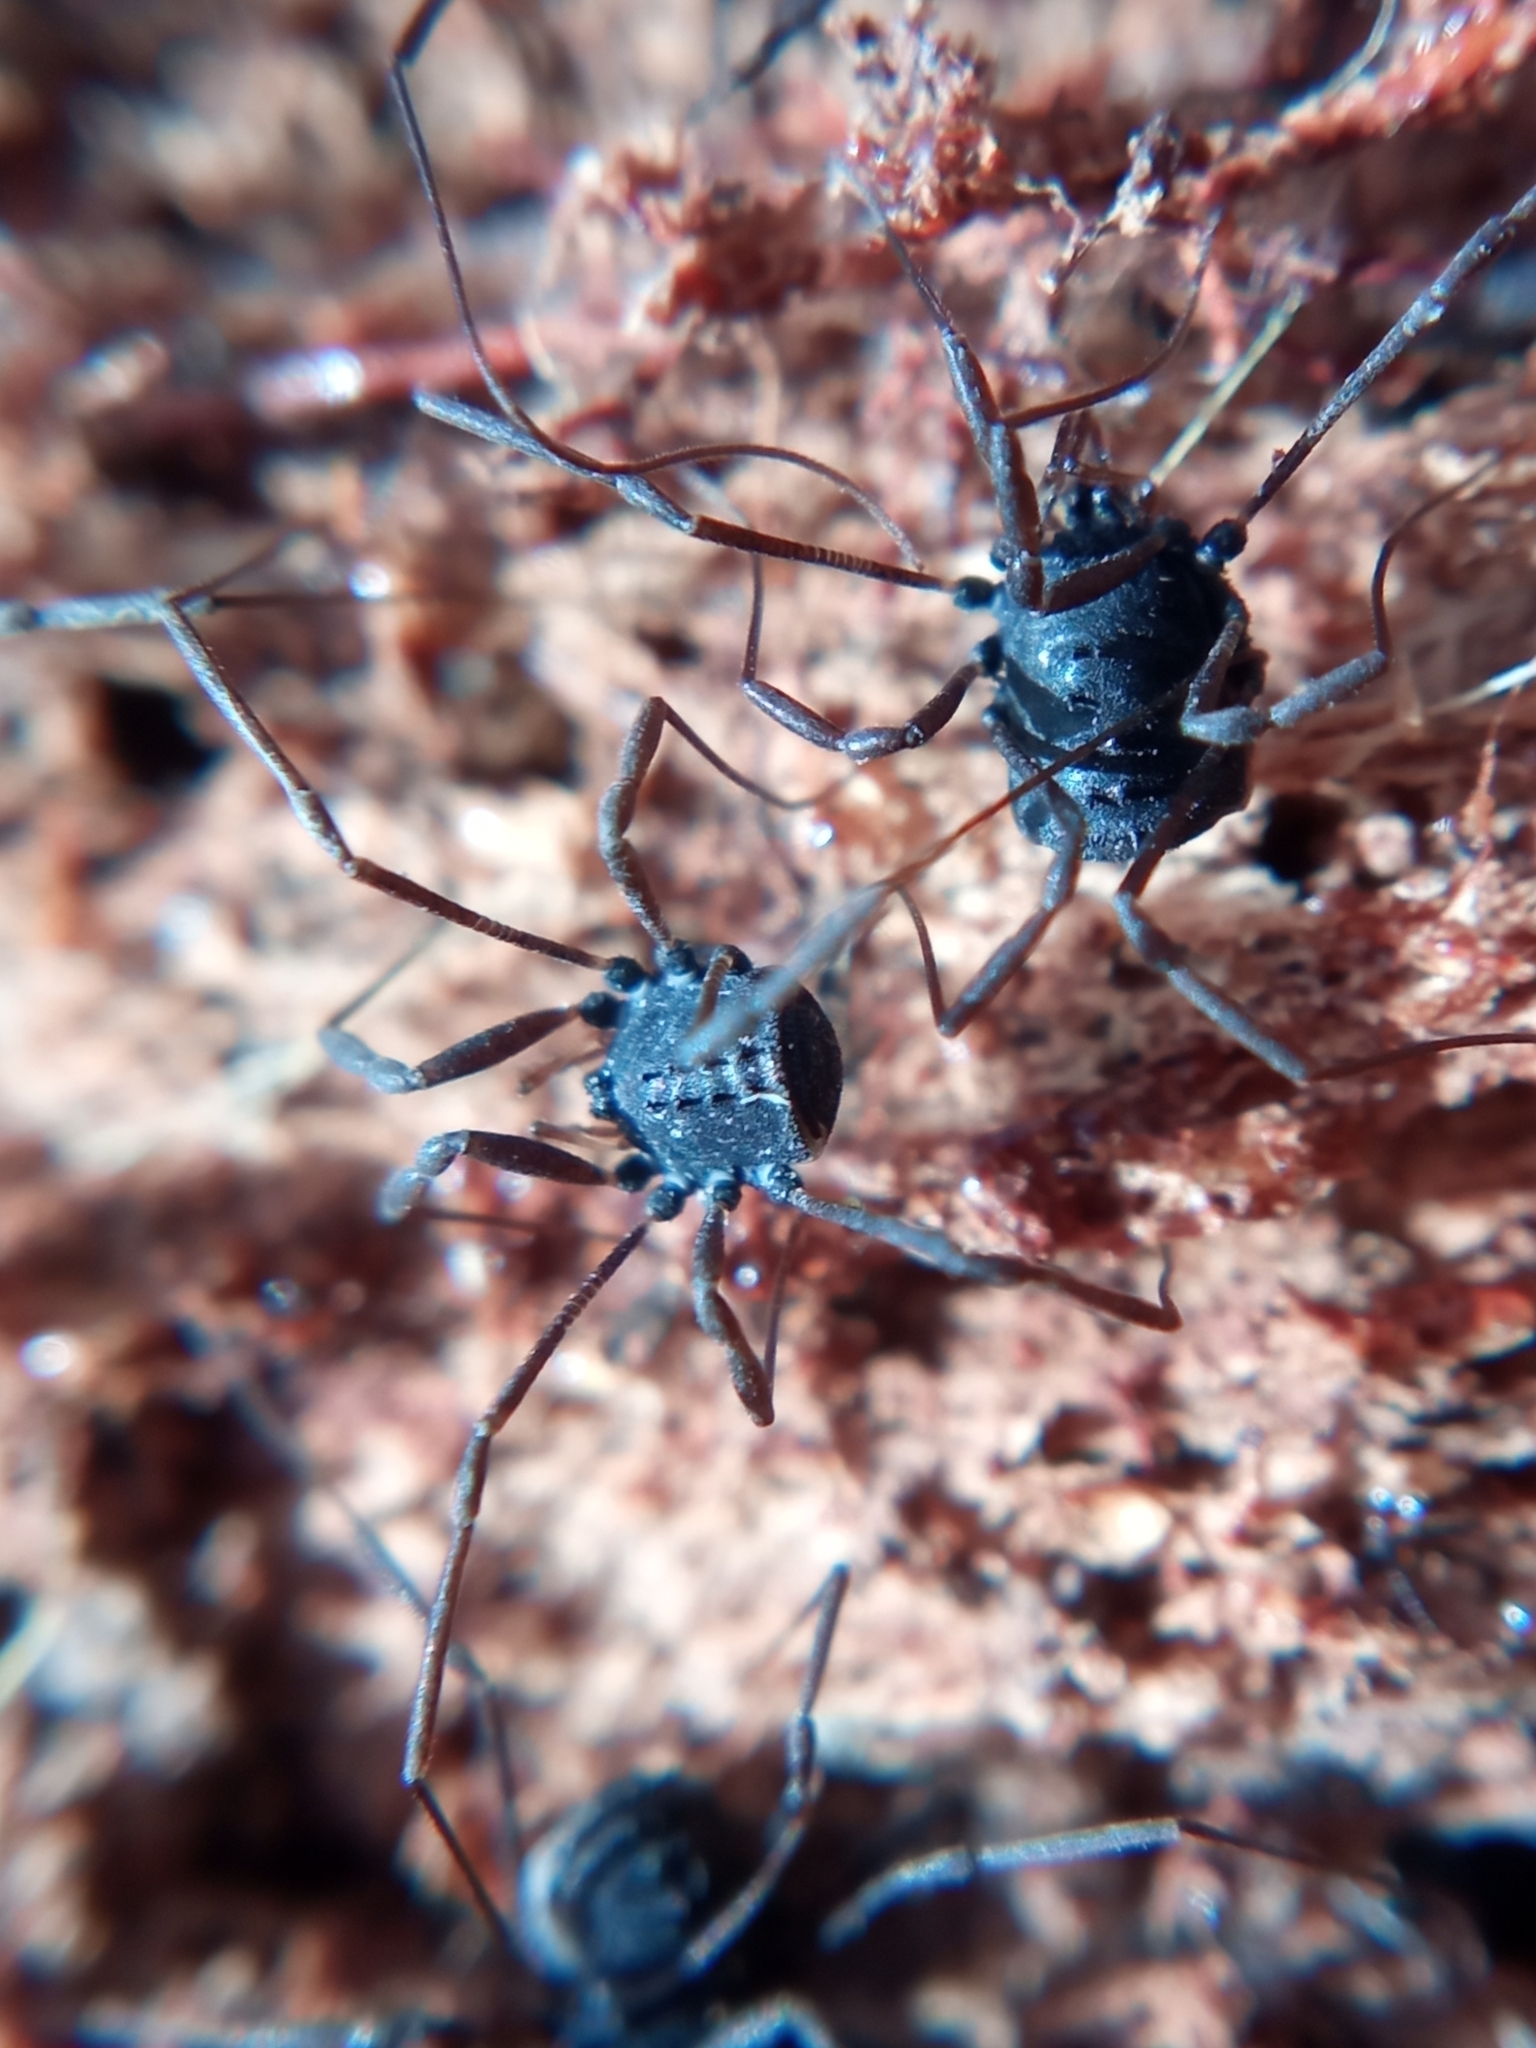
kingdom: Animalia
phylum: Arthropoda
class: Arachnida
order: Opiliones
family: Nemastomatidae
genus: Histricostoma
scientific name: Histricostoma dentipalpe
